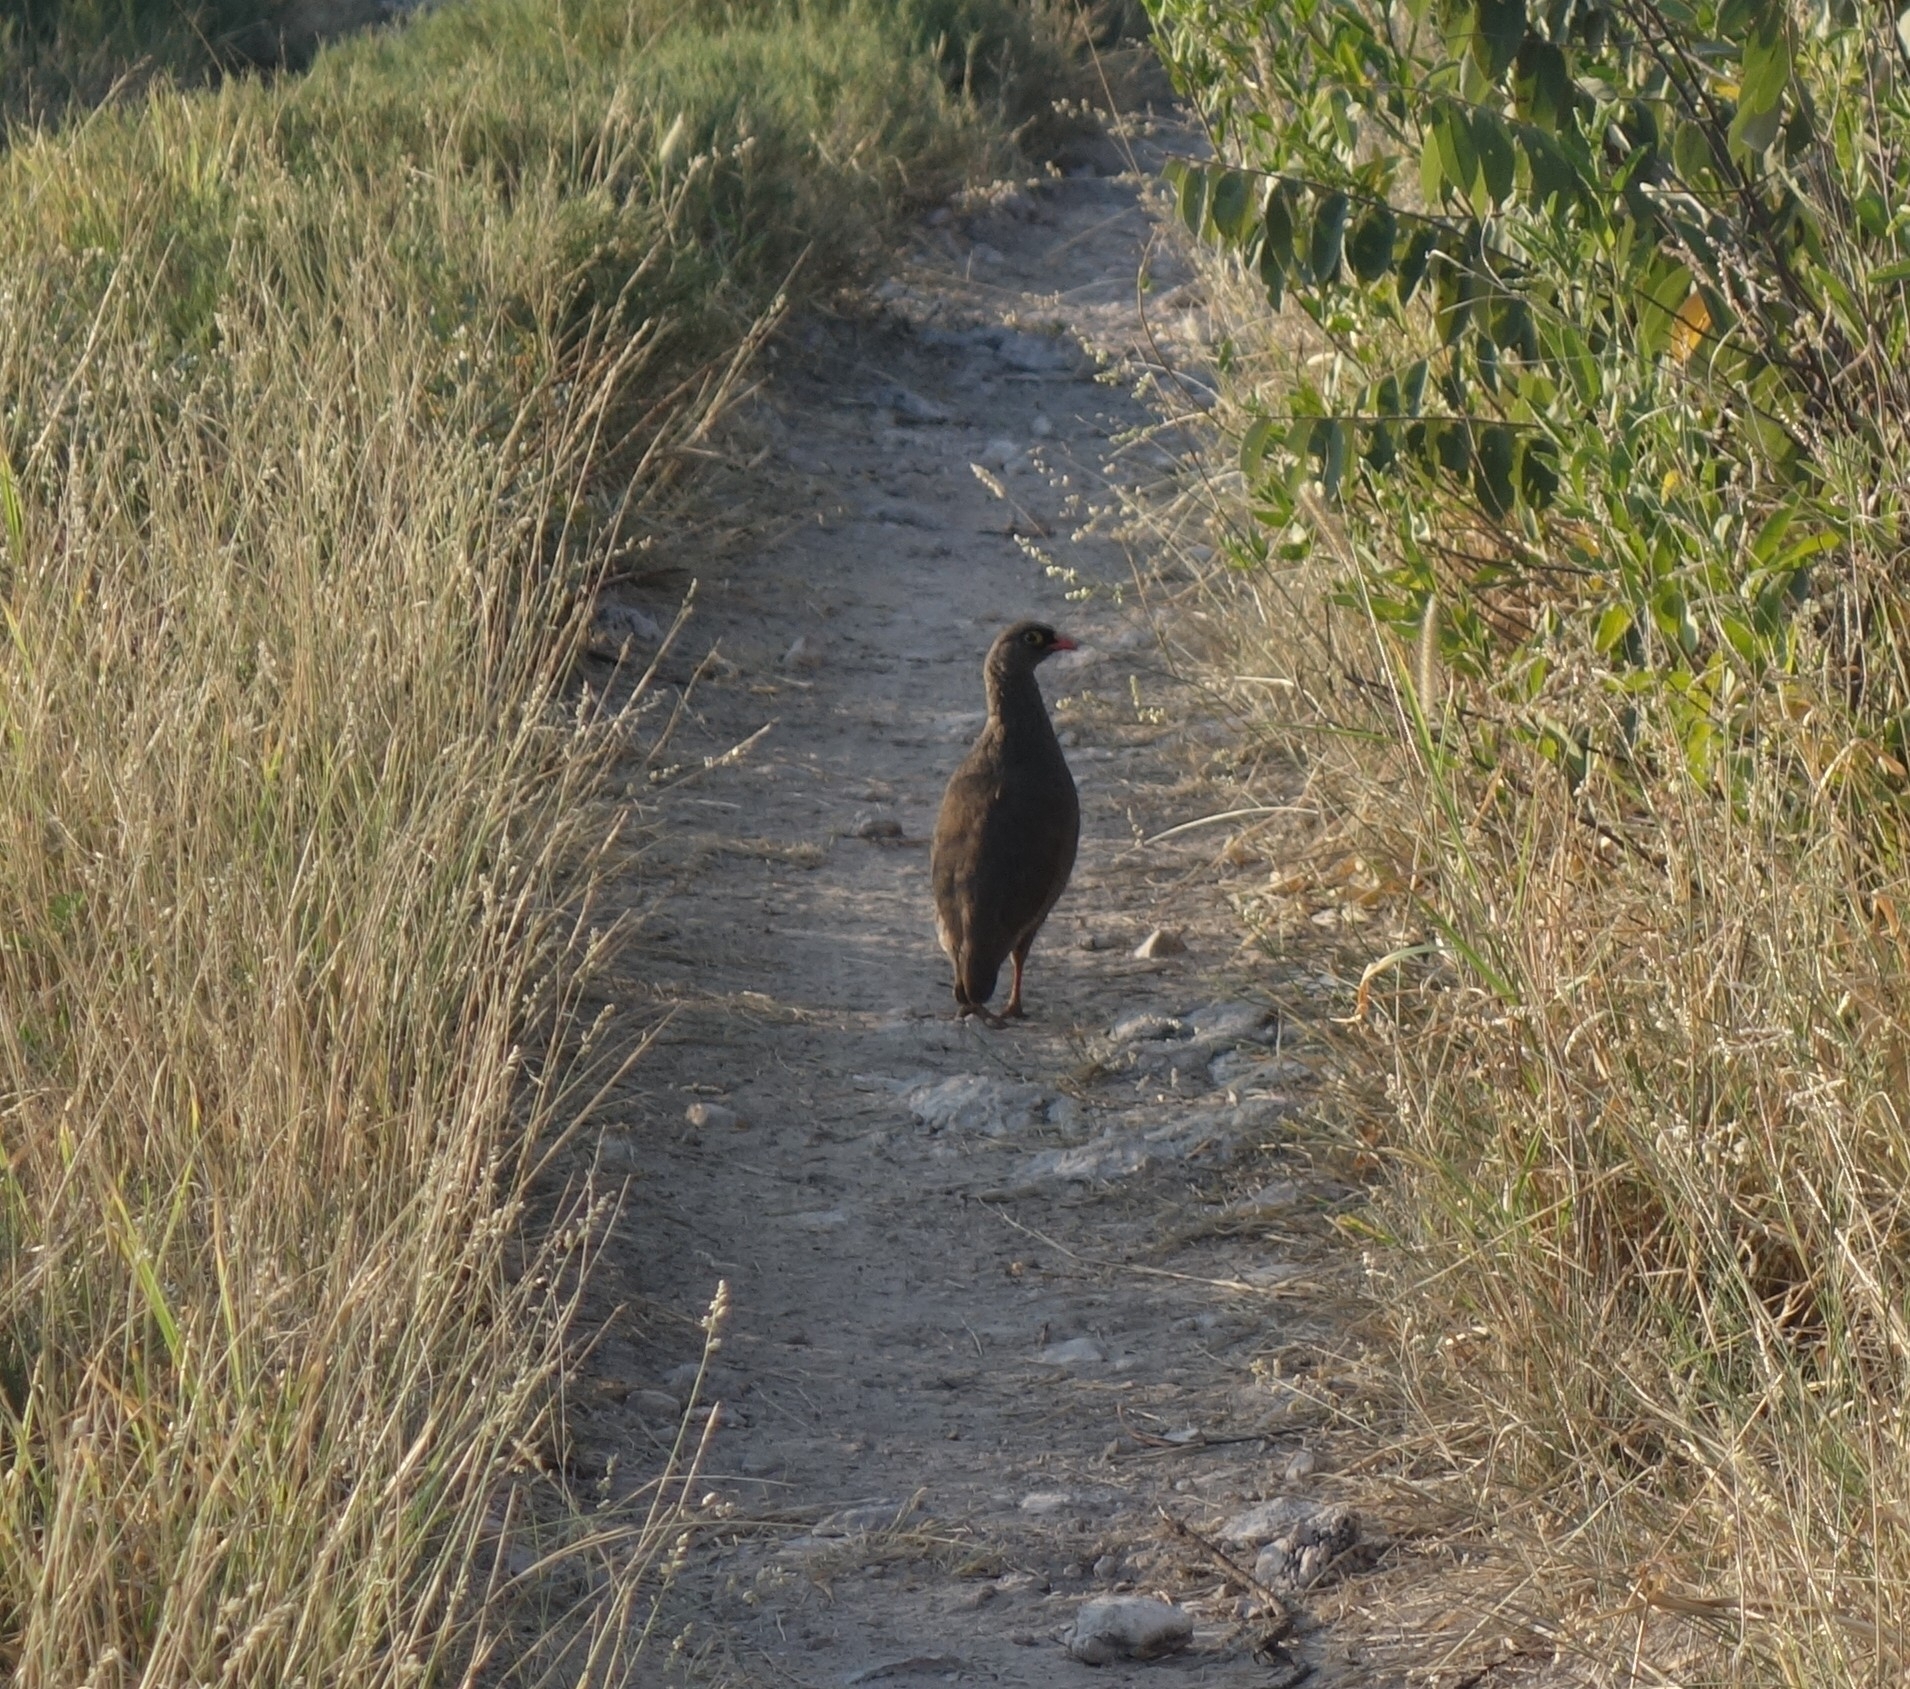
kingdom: Animalia
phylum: Chordata
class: Aves
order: Galliformes
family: Phasianidae
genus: Pternistis
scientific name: Pternistis adspersus
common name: Red-billed spurfowl
